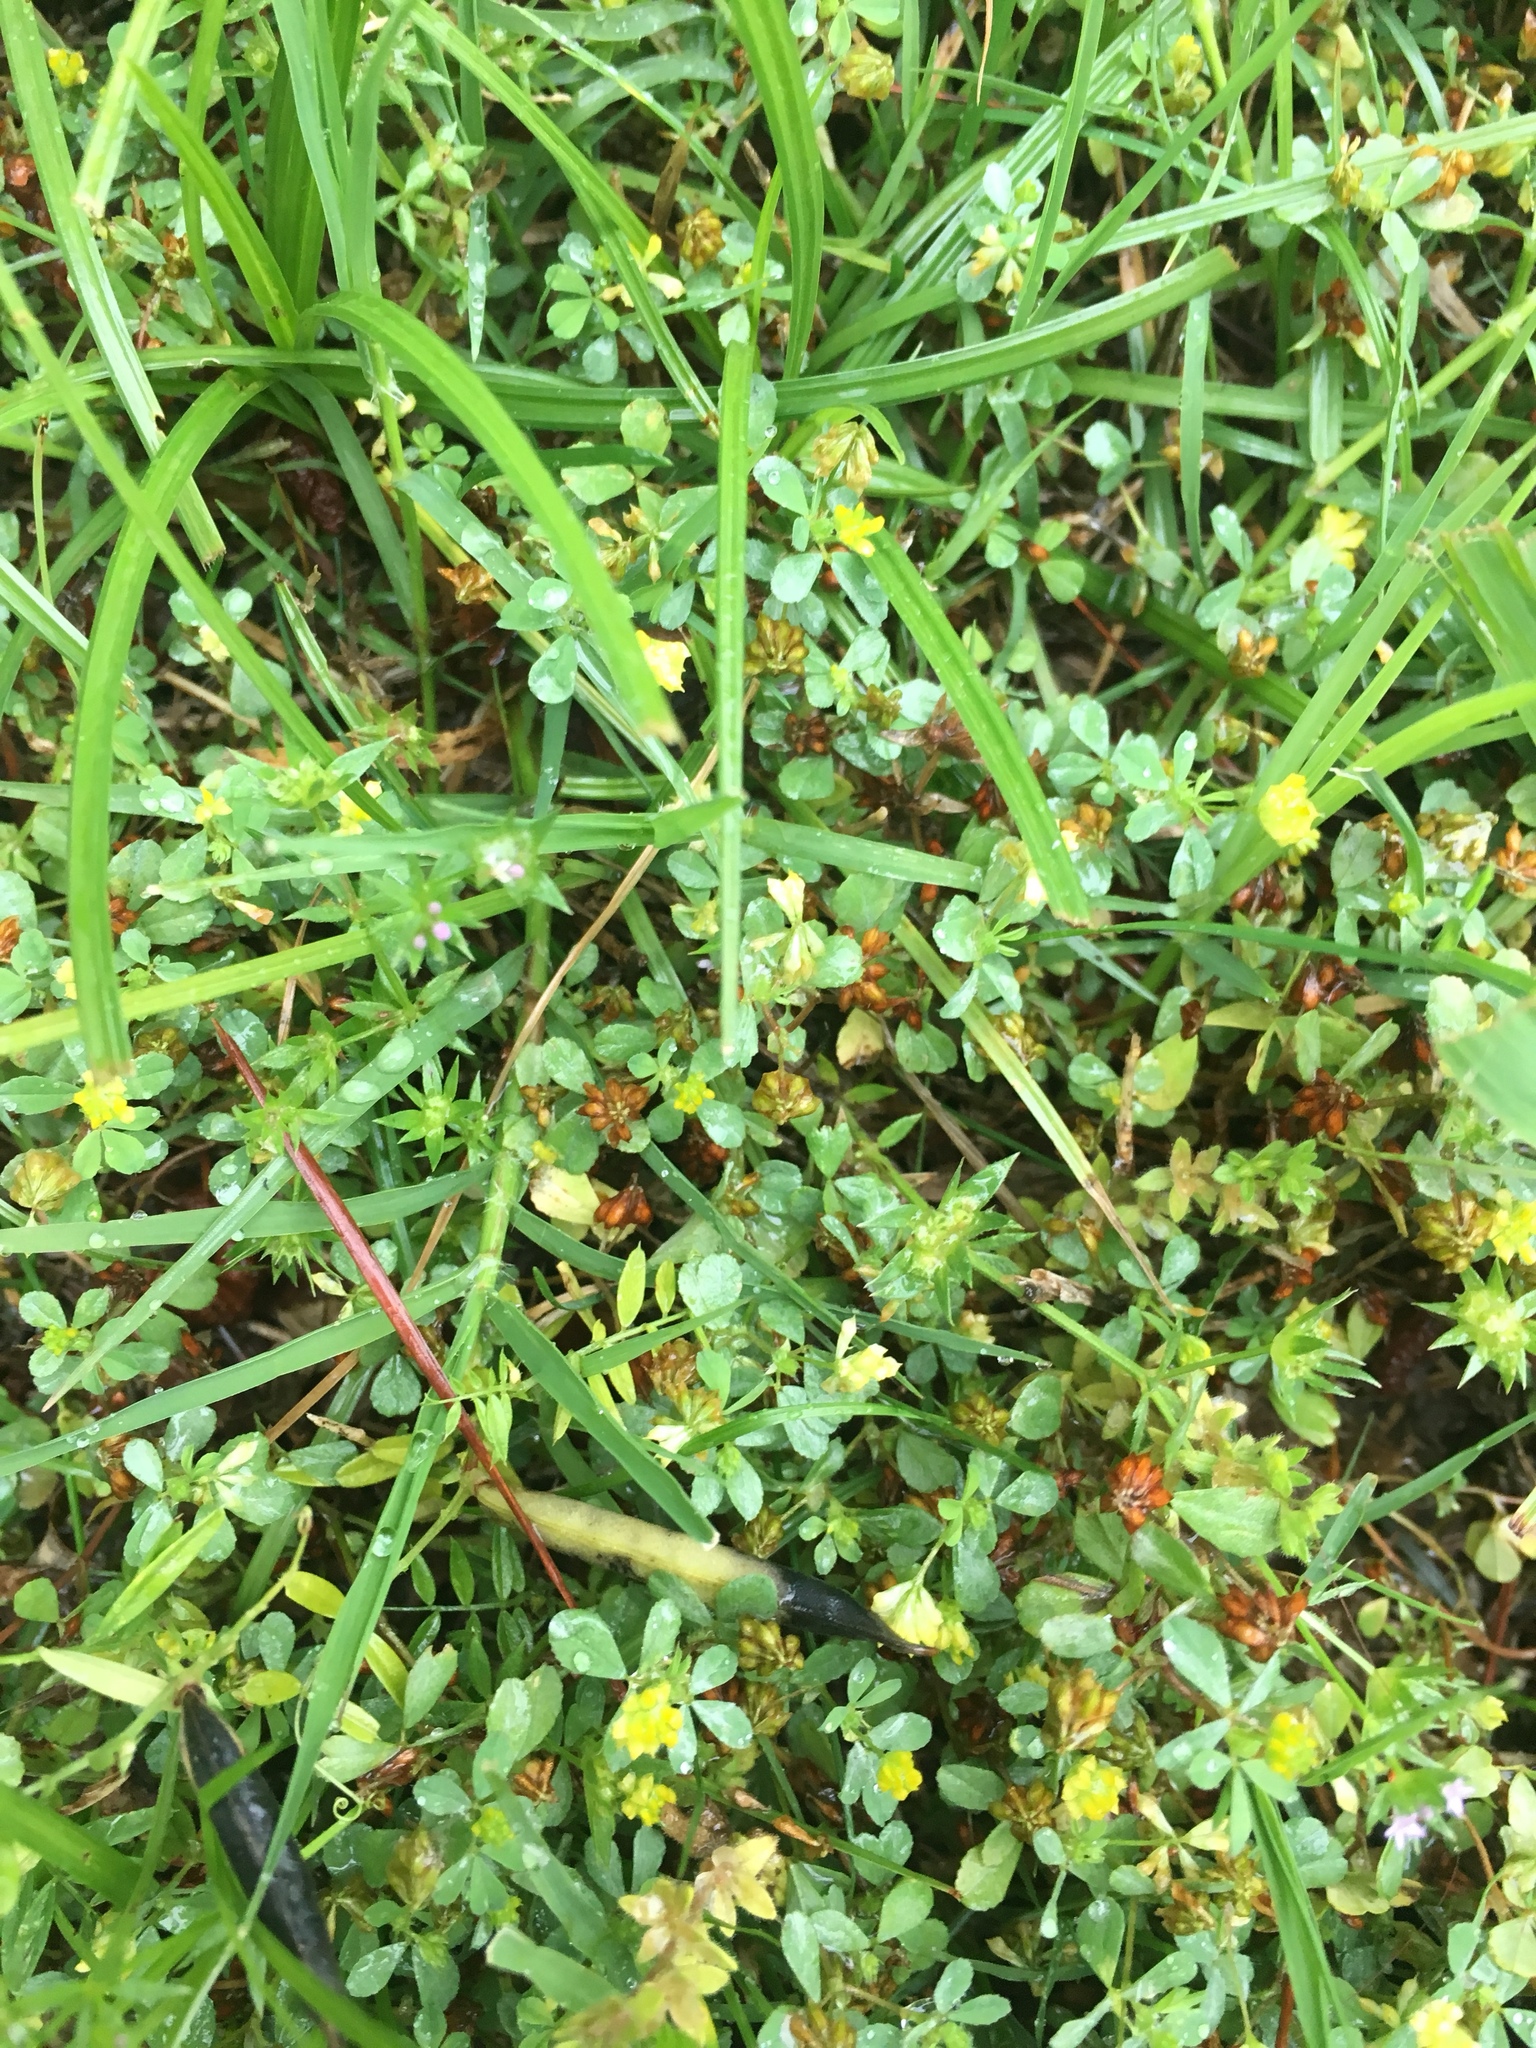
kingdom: Plantae
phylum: Tracheophyta
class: Magnoliopsida
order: Fabales
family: Fabaceae
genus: Trifolium
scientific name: Trifolium dubium
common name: Suckling clover
